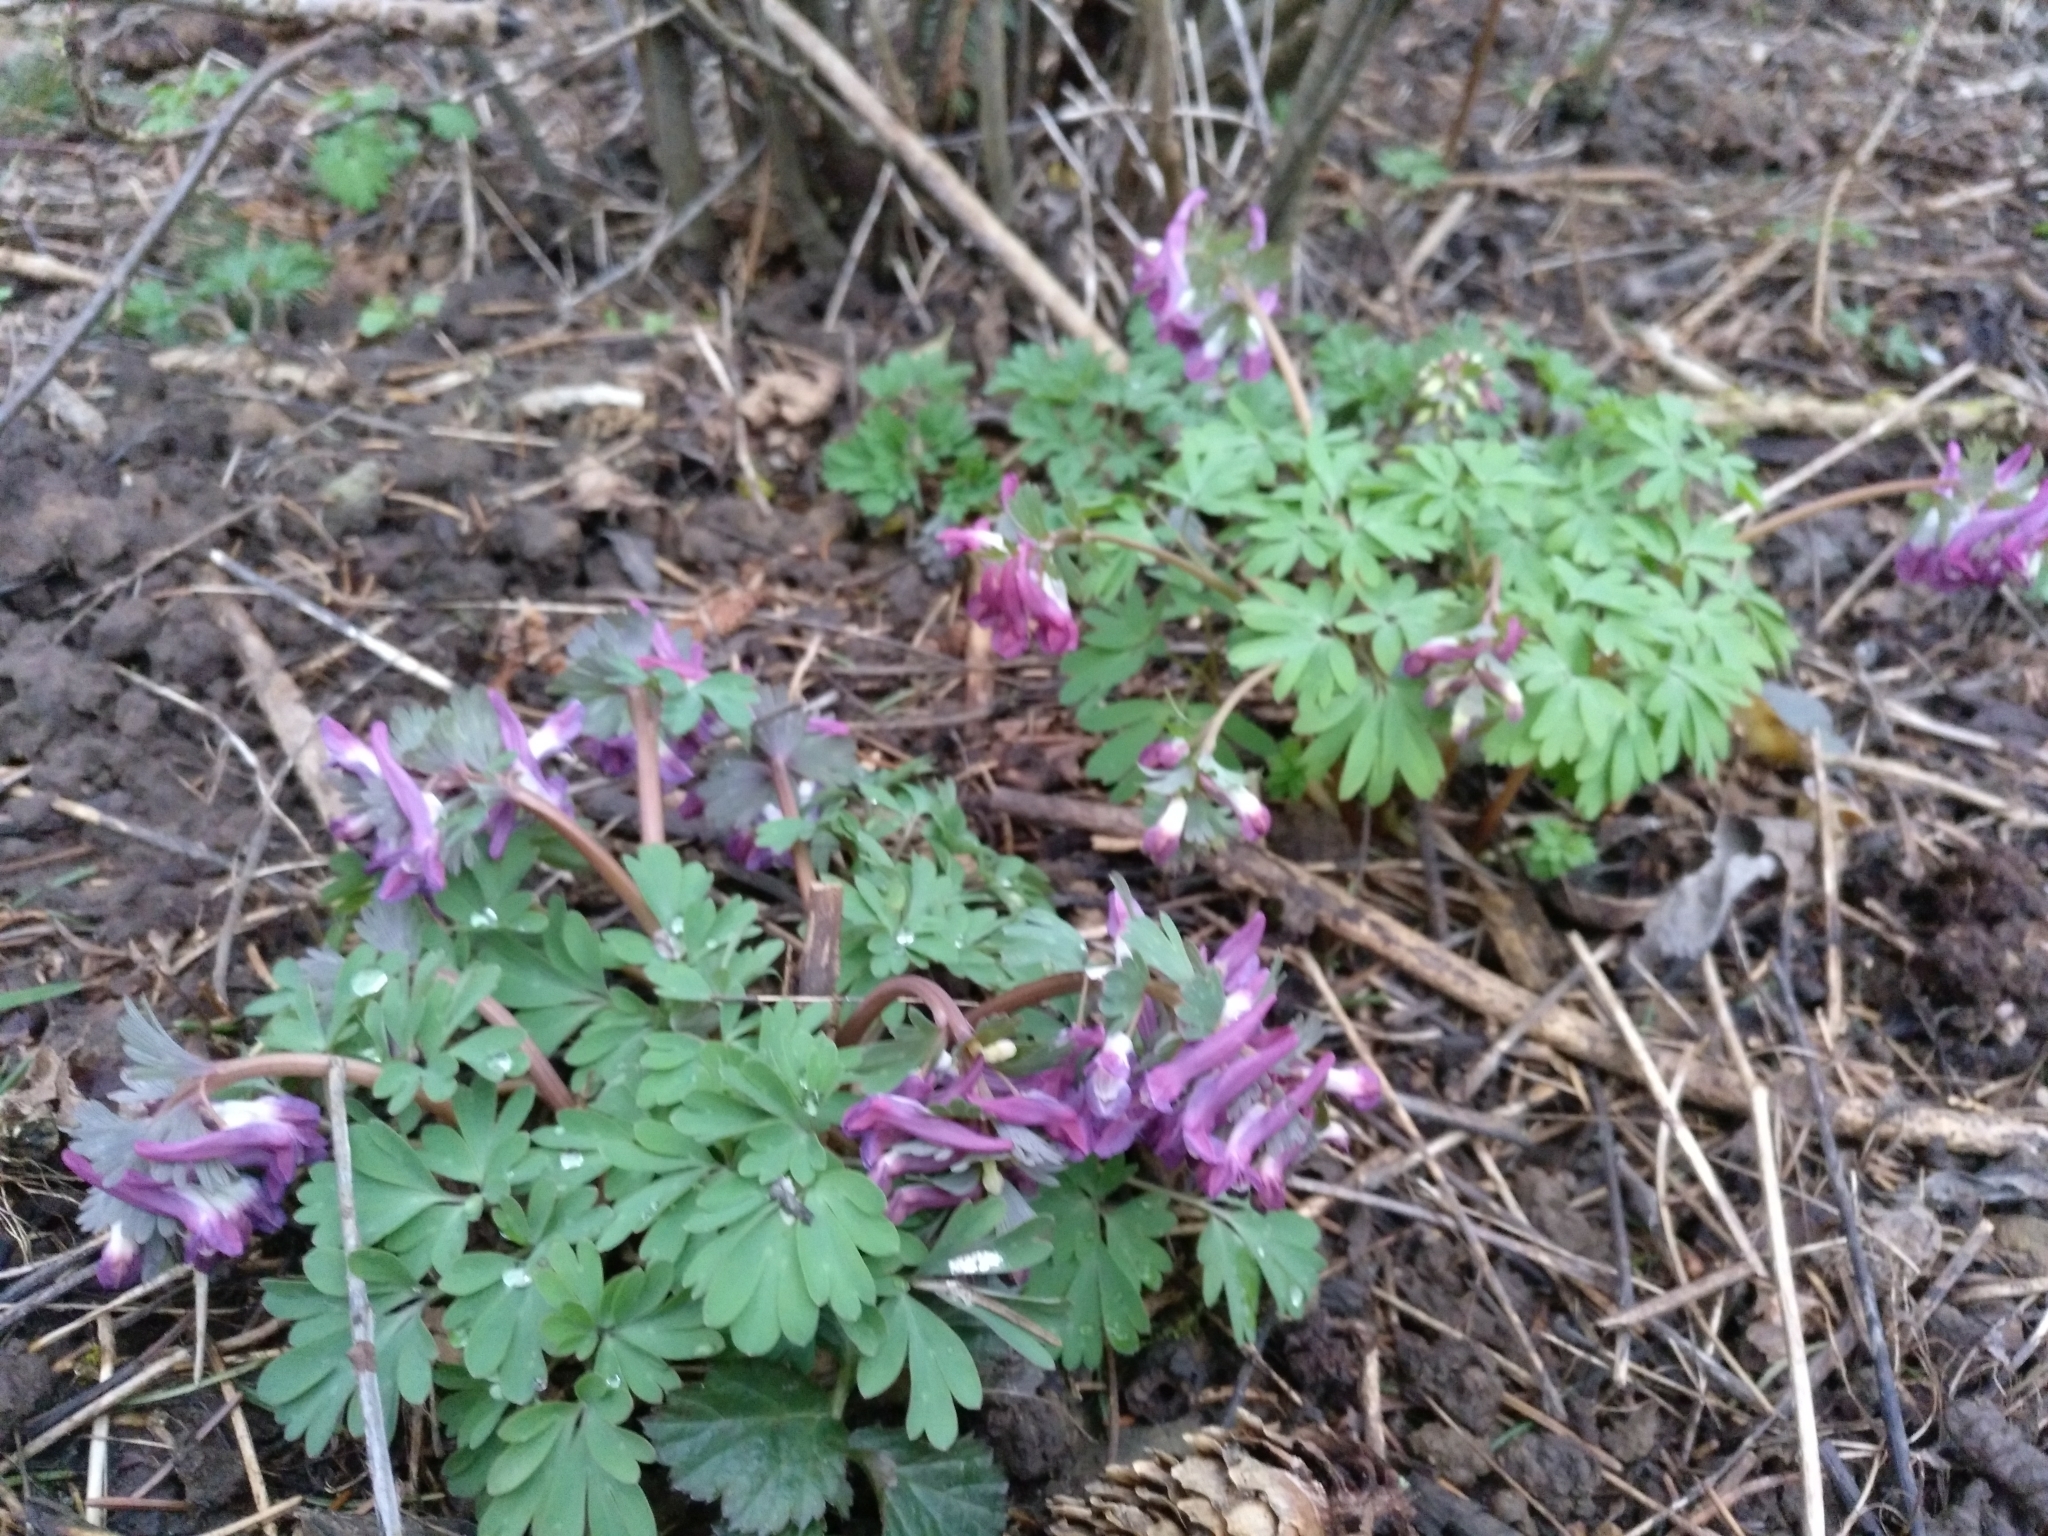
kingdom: Plantae
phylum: Tracheophyta
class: Magnoliopsida
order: Ranunculales
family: Papaveraceae
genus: Corydalis
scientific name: Corydalis solida
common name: Bird-in-a-bush
